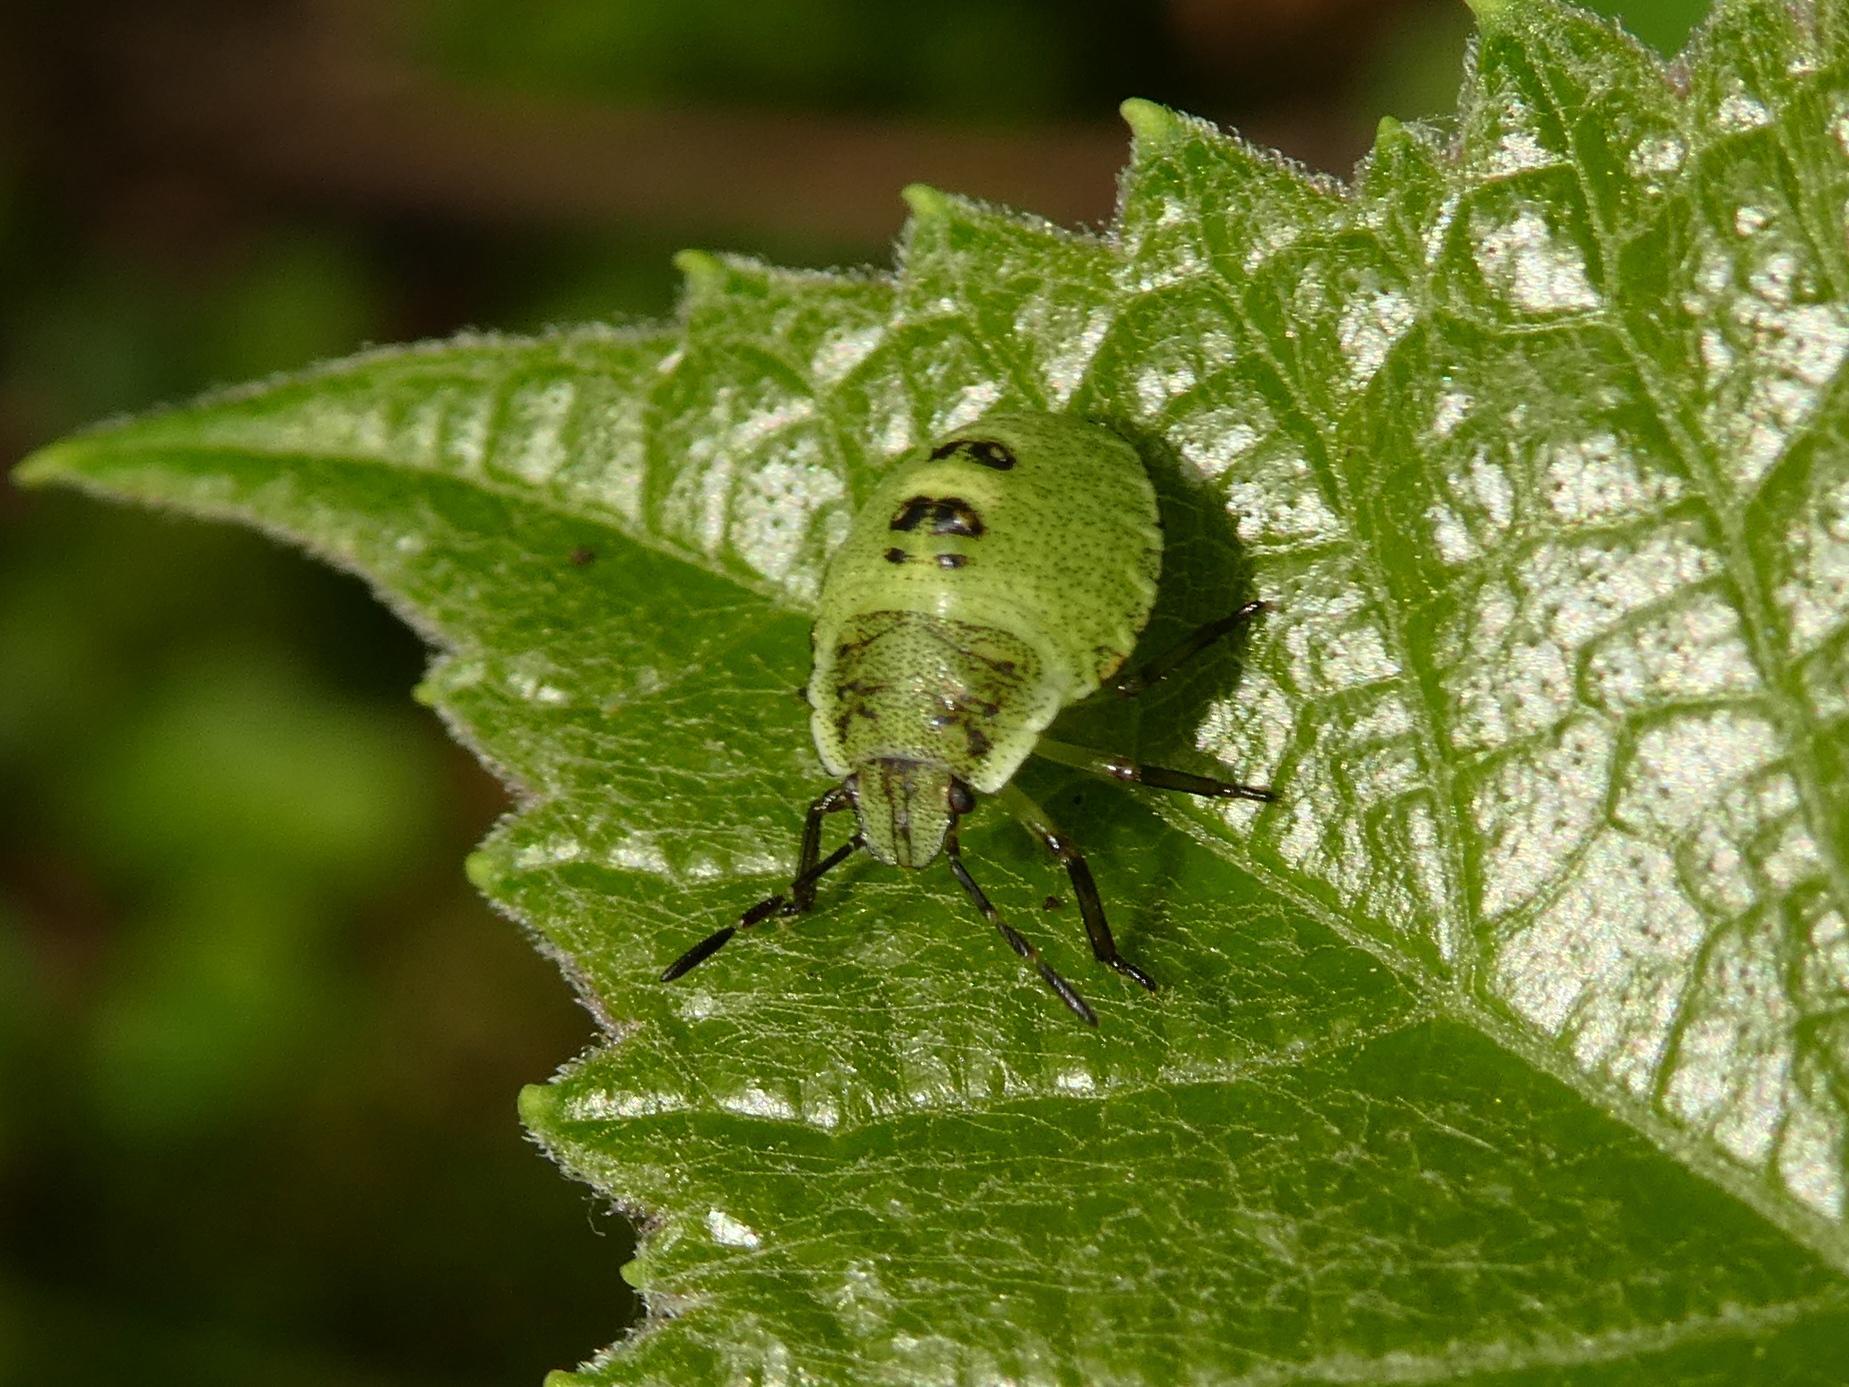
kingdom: Animalia
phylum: Arthropoda
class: Insecta
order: Hemiptera
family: Pentatomidae
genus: Palomena
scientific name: Palomena prasina
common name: Green shieldbug
